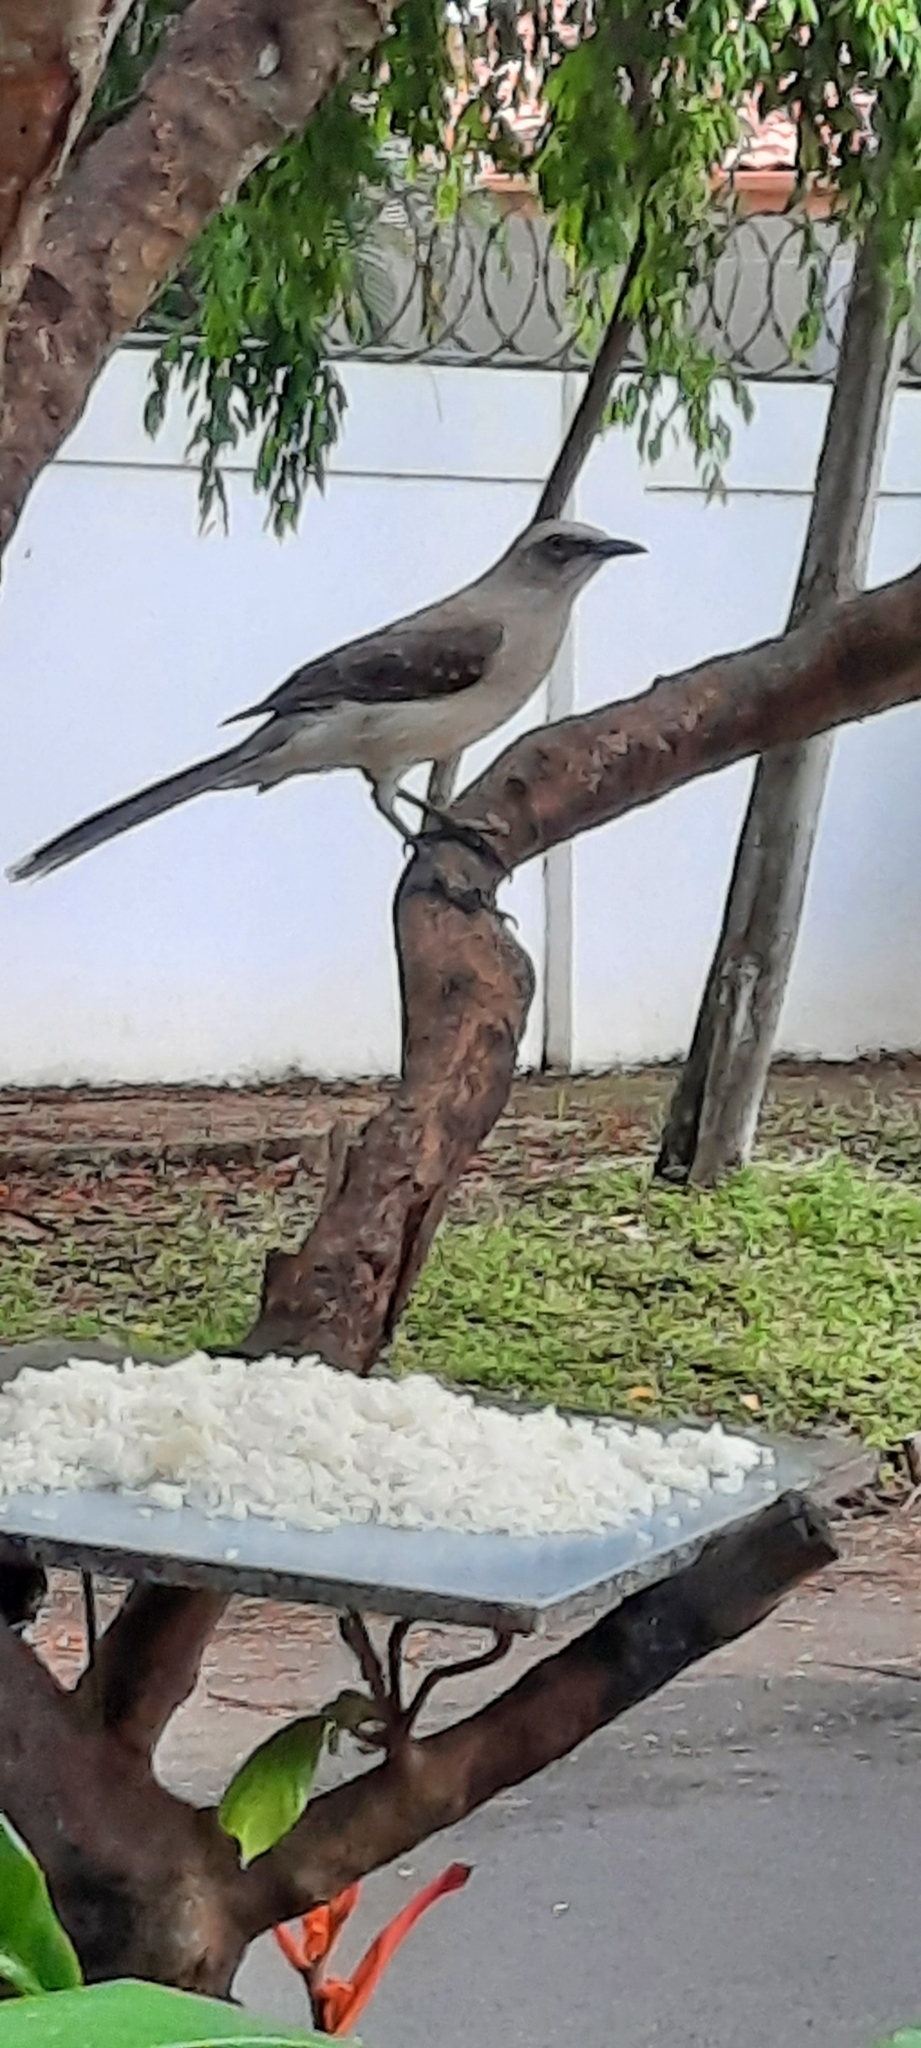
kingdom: Animalia
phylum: Chordata
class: Aves
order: Passeriformes
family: Mimidae
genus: Mimus
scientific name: Mimus gilvus
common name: Tropical mockingbird
